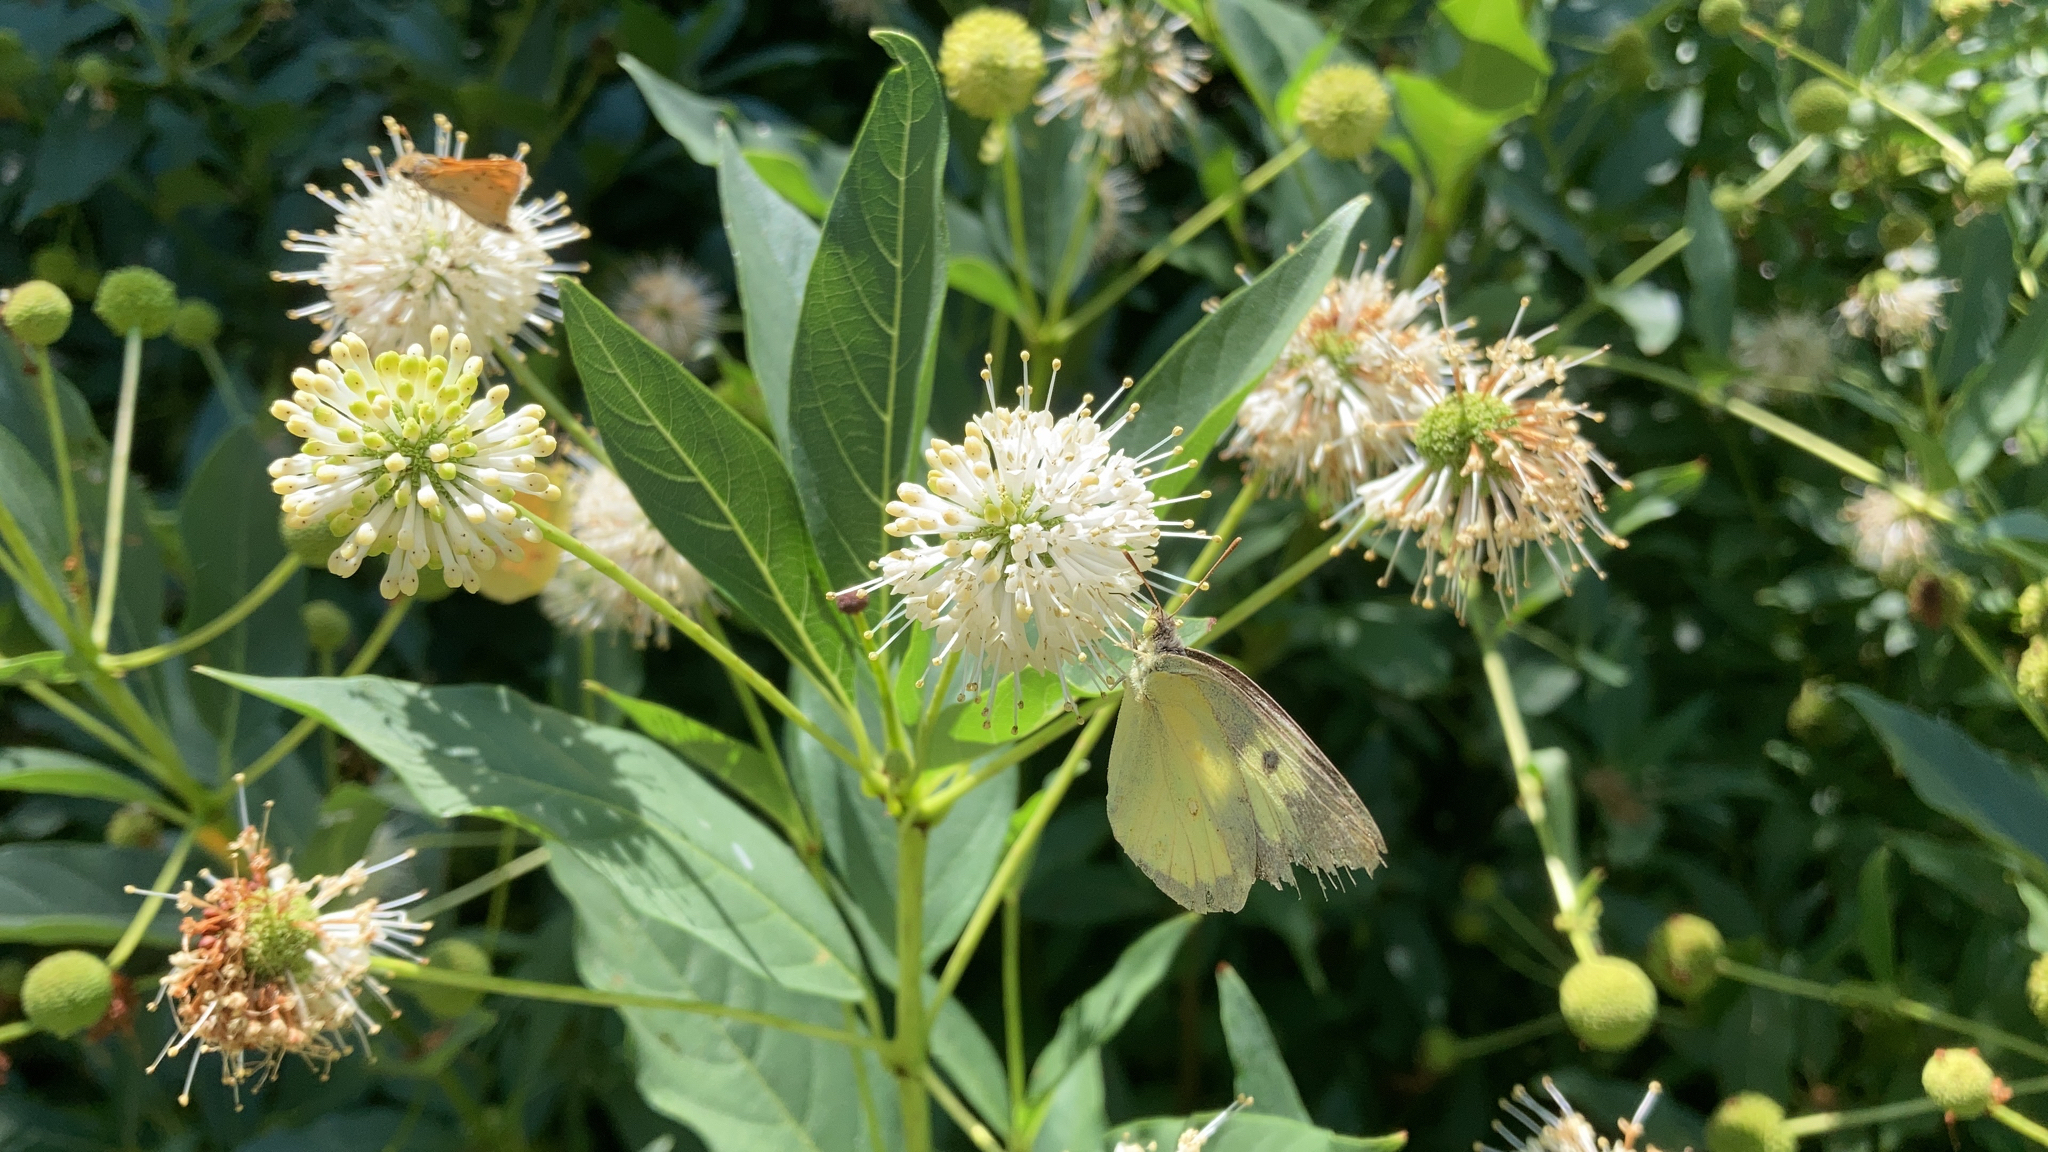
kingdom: Plantae
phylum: Tracheophyta
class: Magnoliopsida
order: Gentianales
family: Rubiaceae
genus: Cephalanthus
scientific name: Cephalanthus occidentalis
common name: Button-willow
